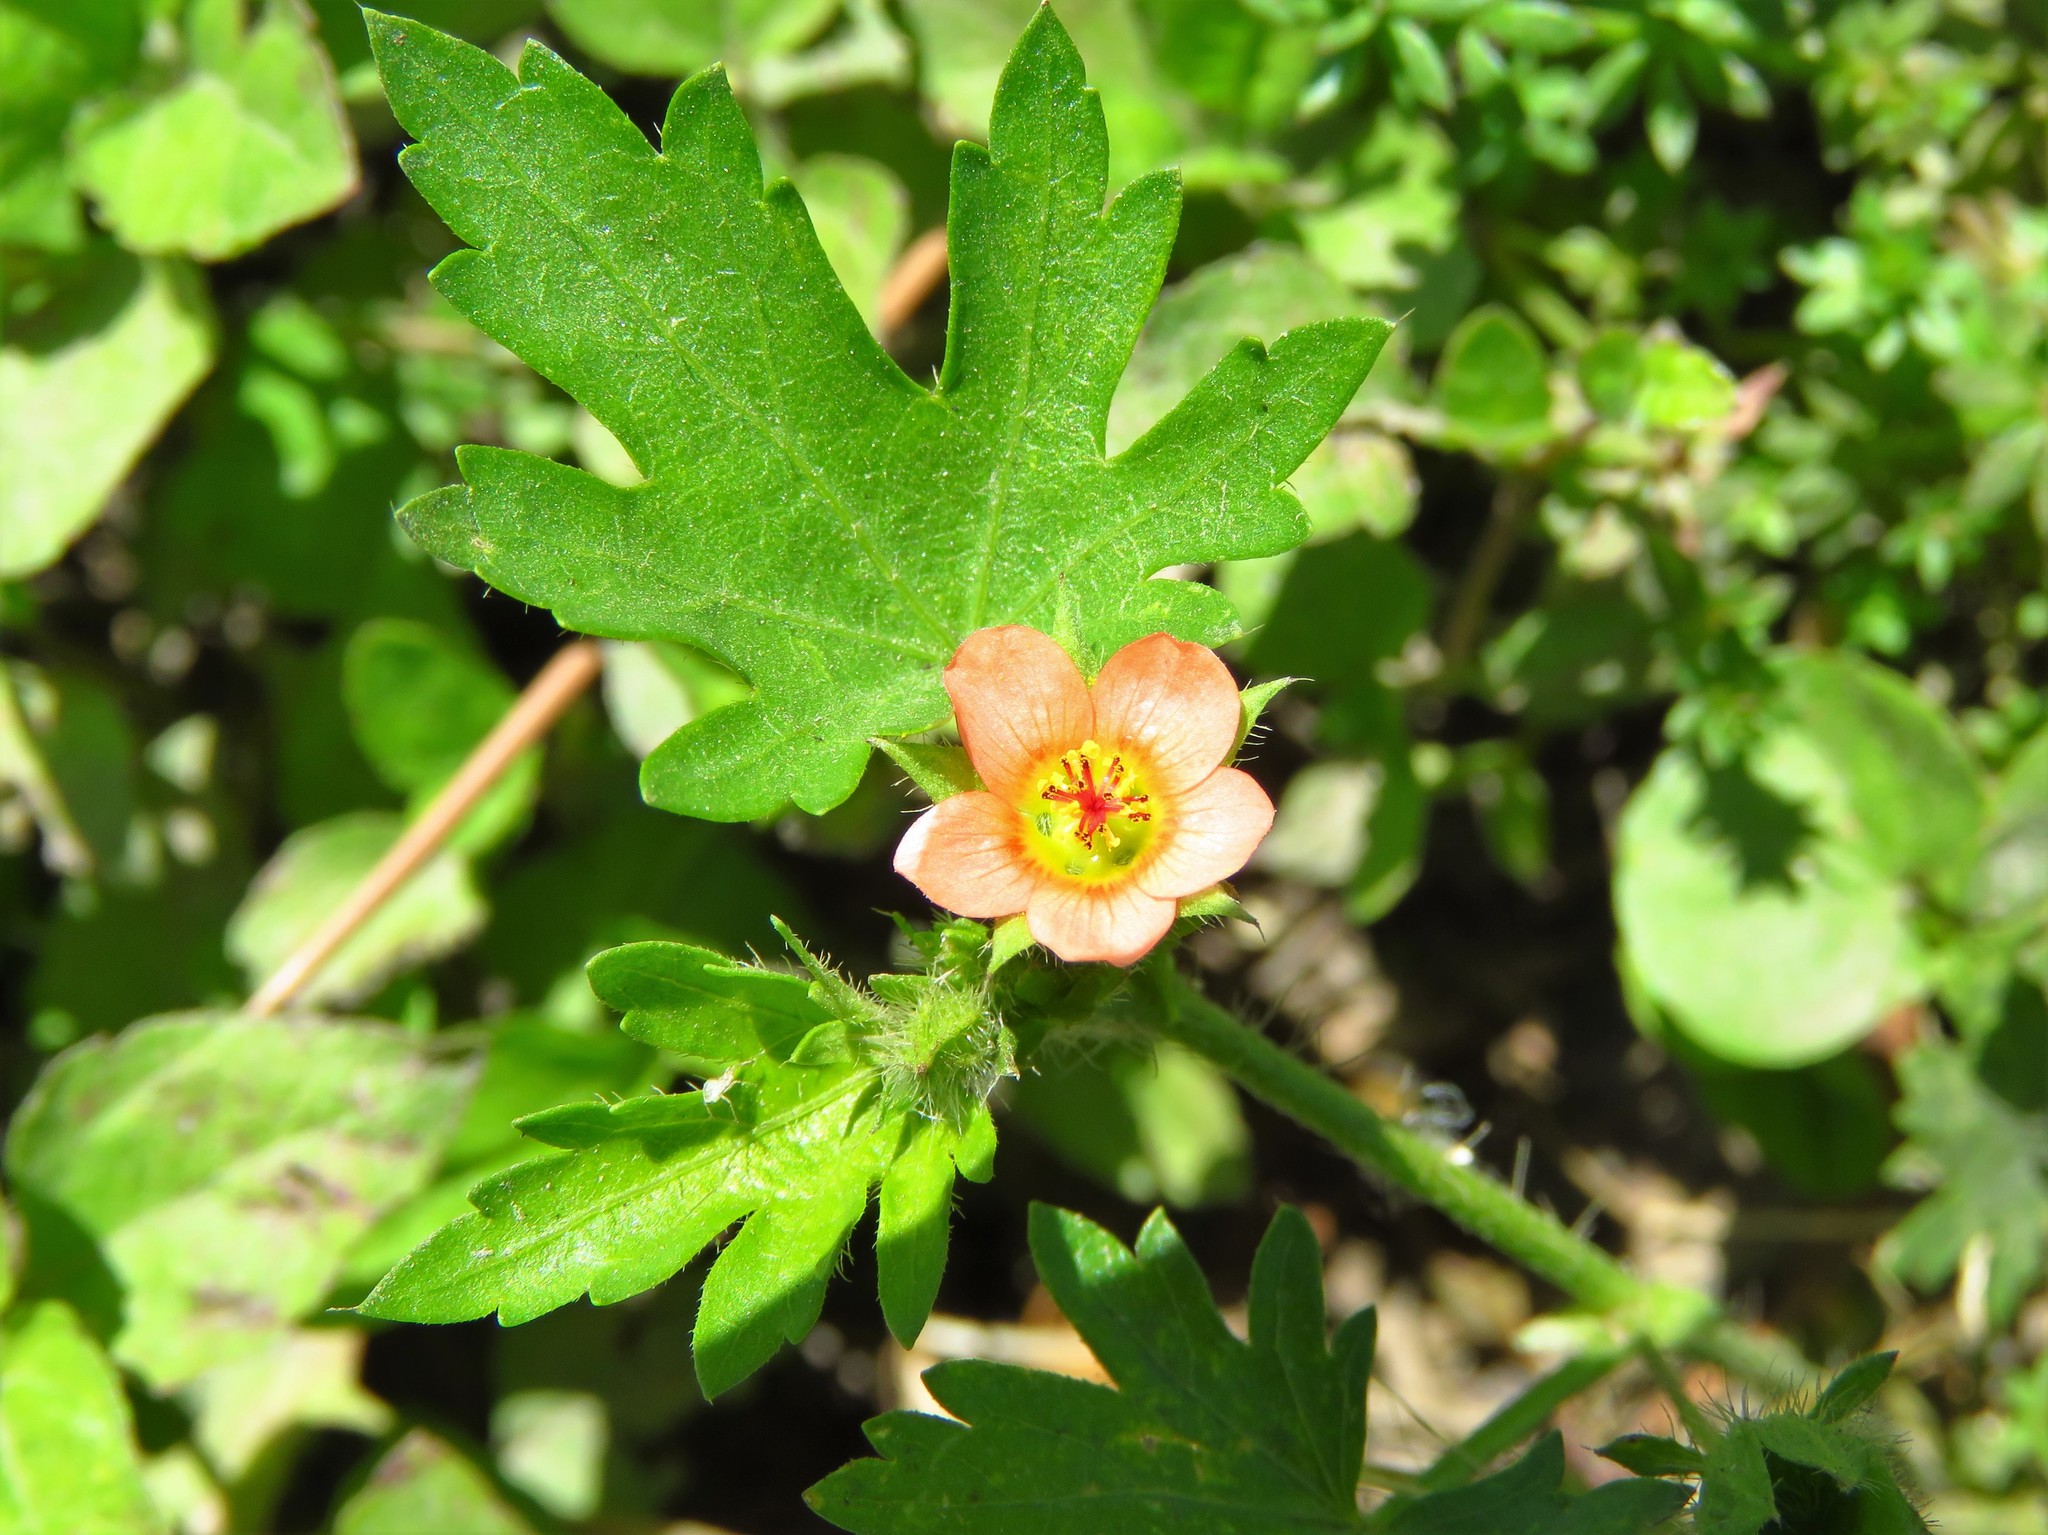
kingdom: Plantae
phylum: Tracheophyta
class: Magnoliopsida
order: Malvales
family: Malvaceae
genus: Modiola
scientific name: Modiola caroliniana
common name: Carolina bristlemallow
